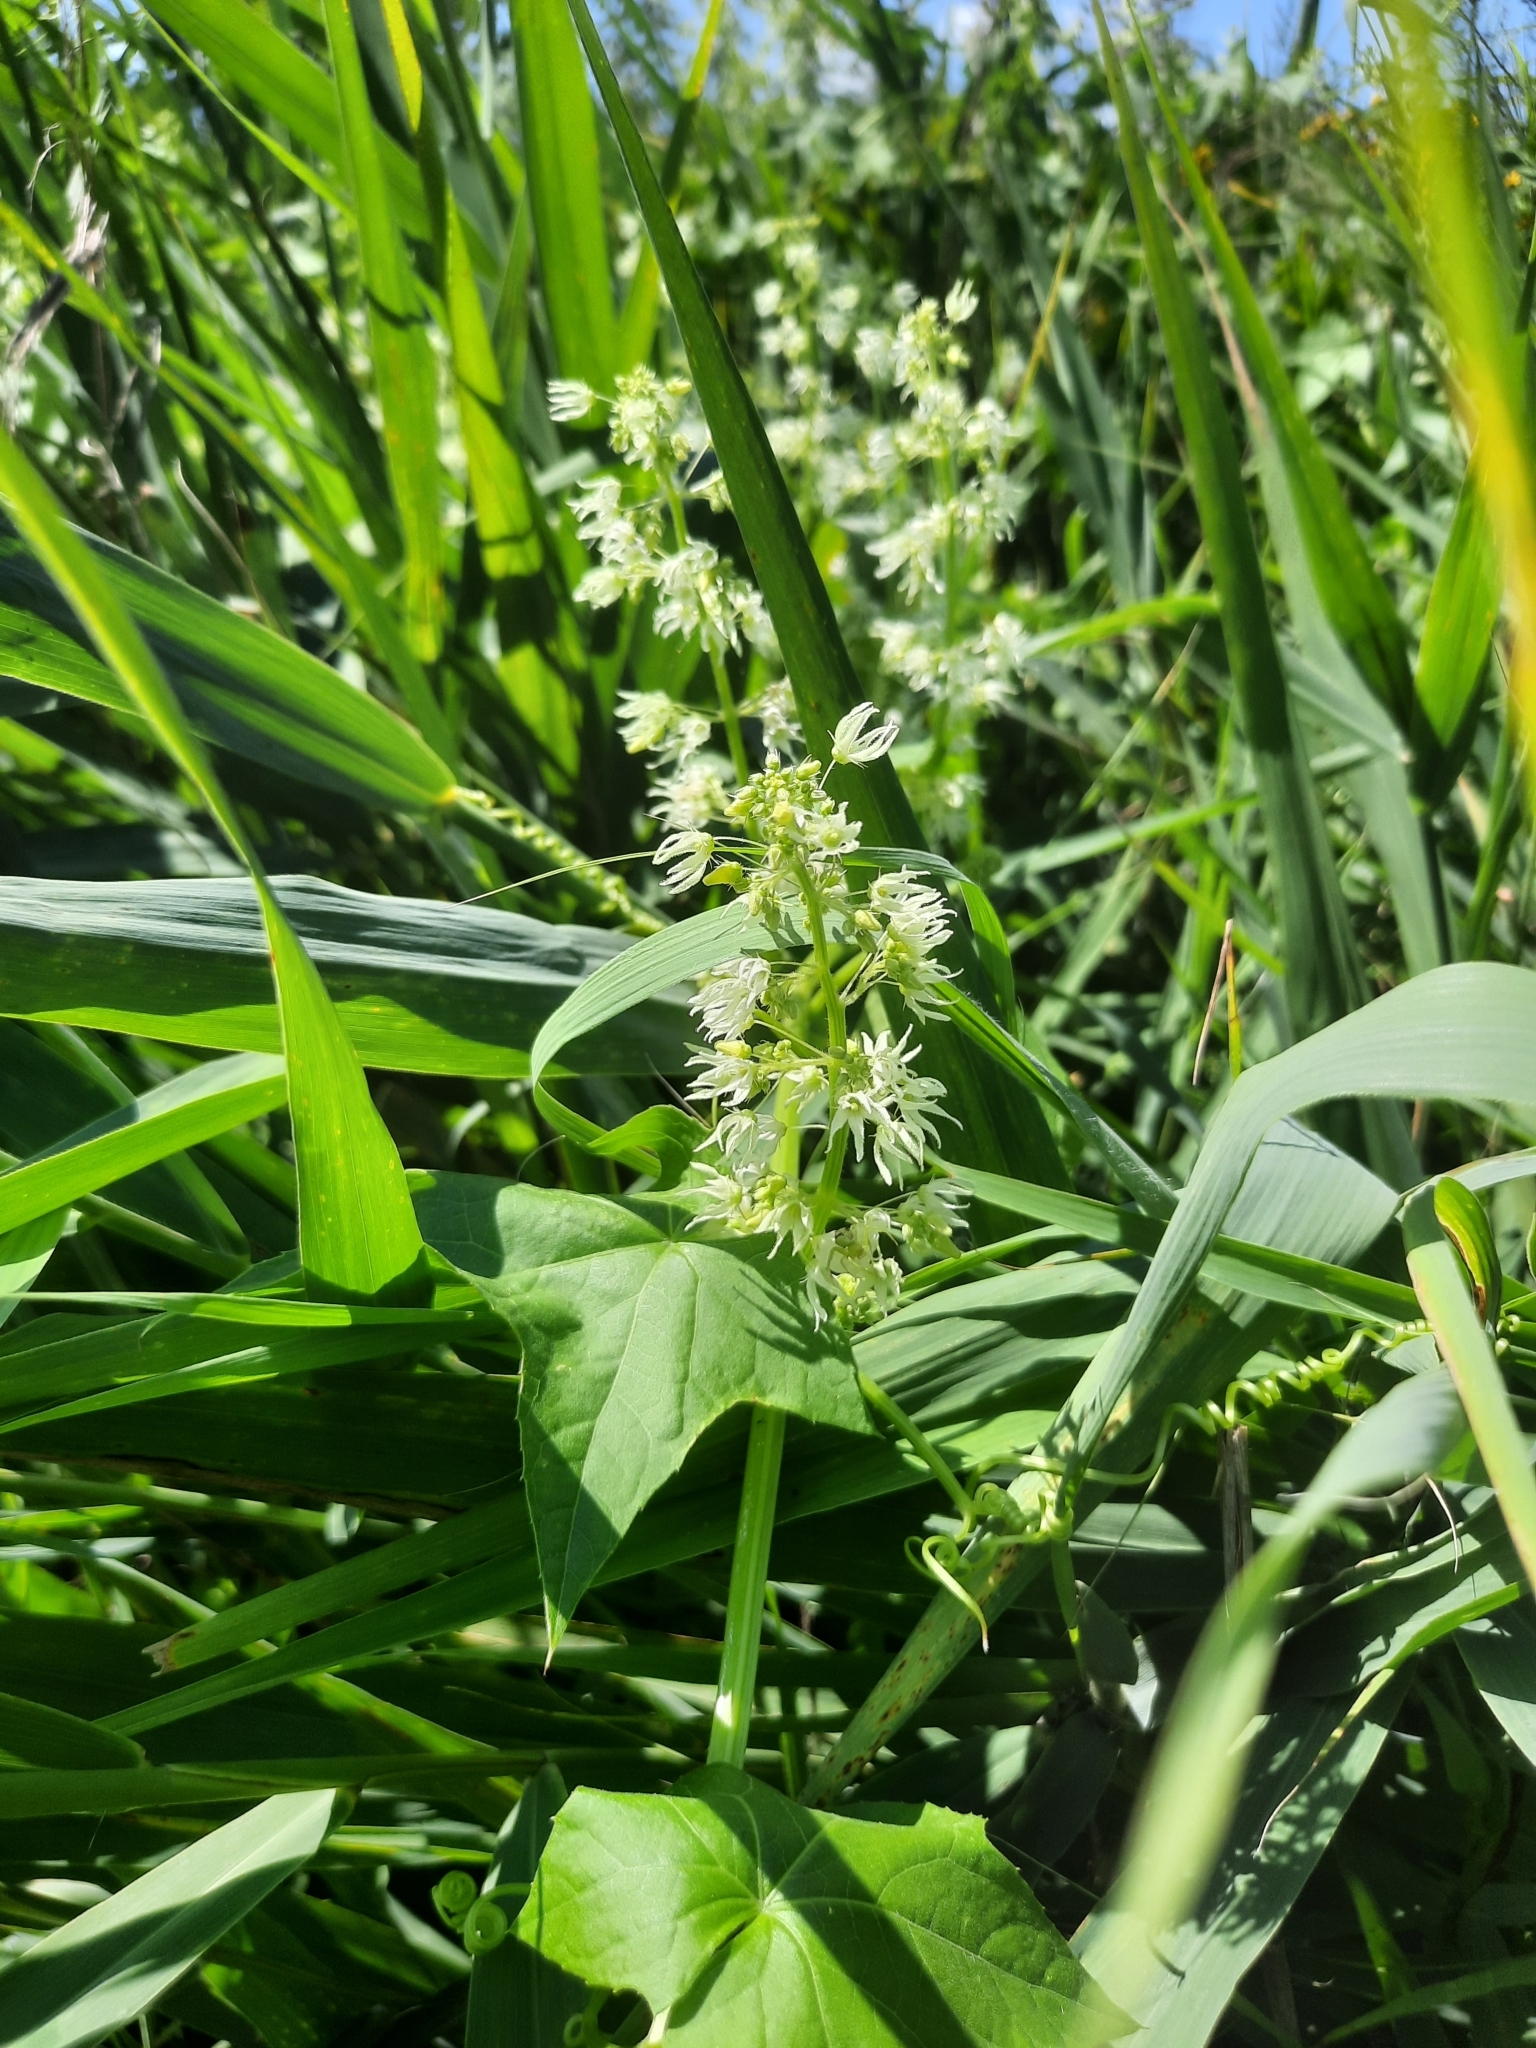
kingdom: Plantae
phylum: Tracheophyta
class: Magnoliopsida
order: Cucurbitales
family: Cucurbitaceae
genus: Echinocystis
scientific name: Echinocystis lobata
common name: Wild cucumber
